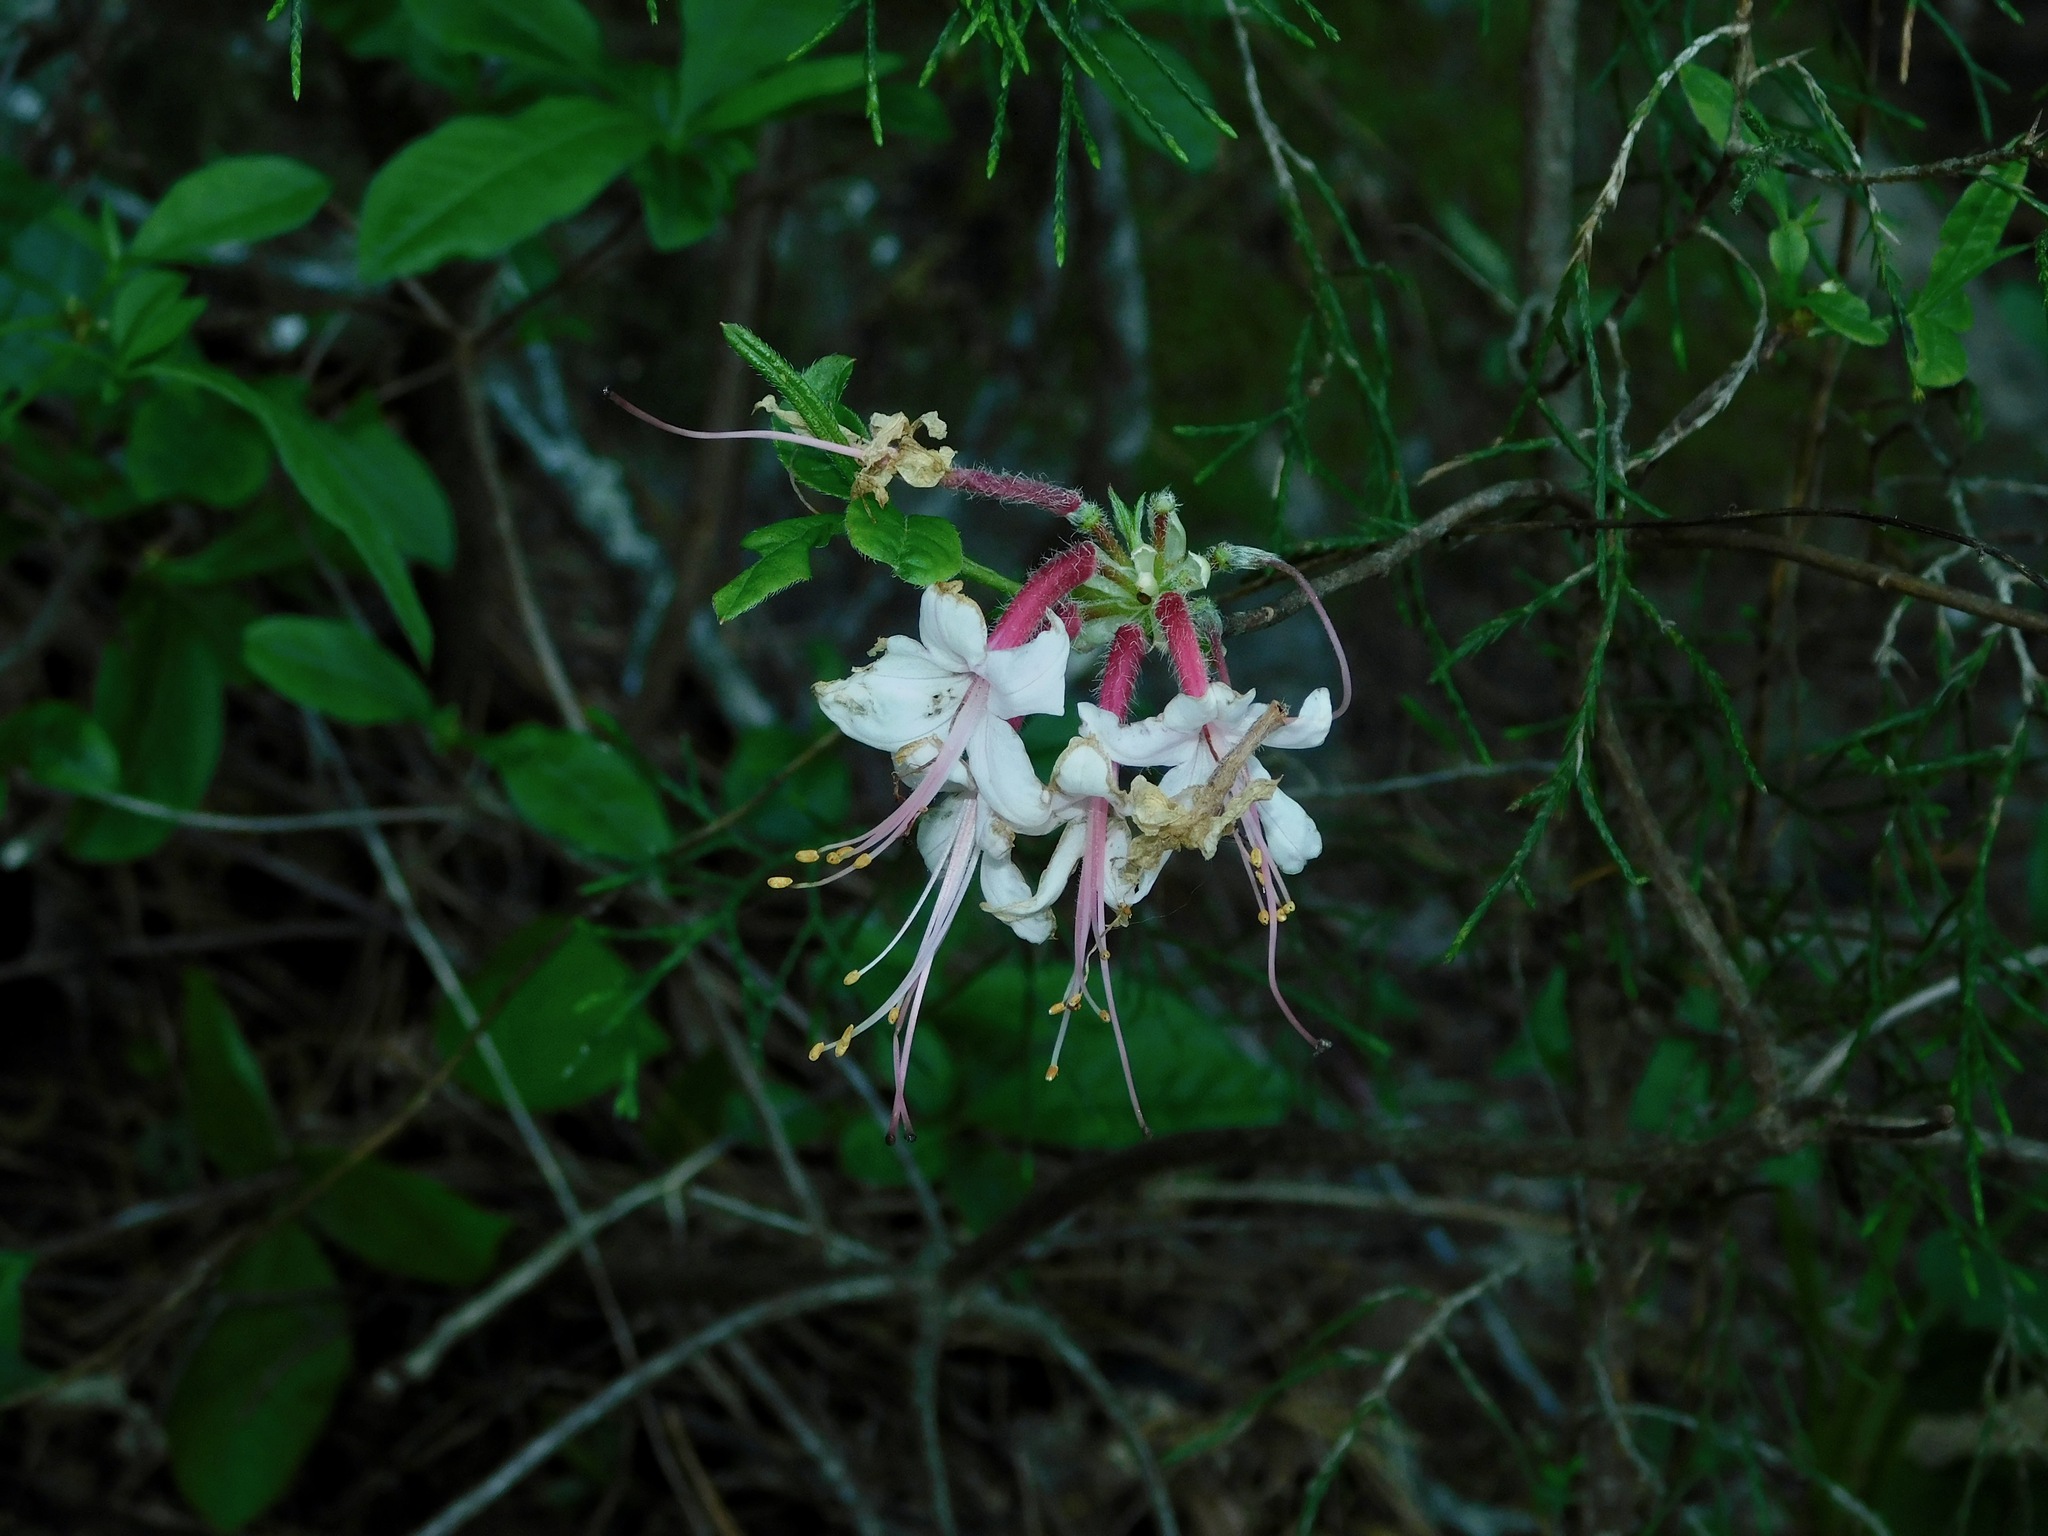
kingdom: Plantae
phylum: Tracheophyta
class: Magnoliopsida
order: Ericales
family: Ericaceae
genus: Rhododendron
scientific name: Rhododendron periclymenoides
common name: Election-pink
